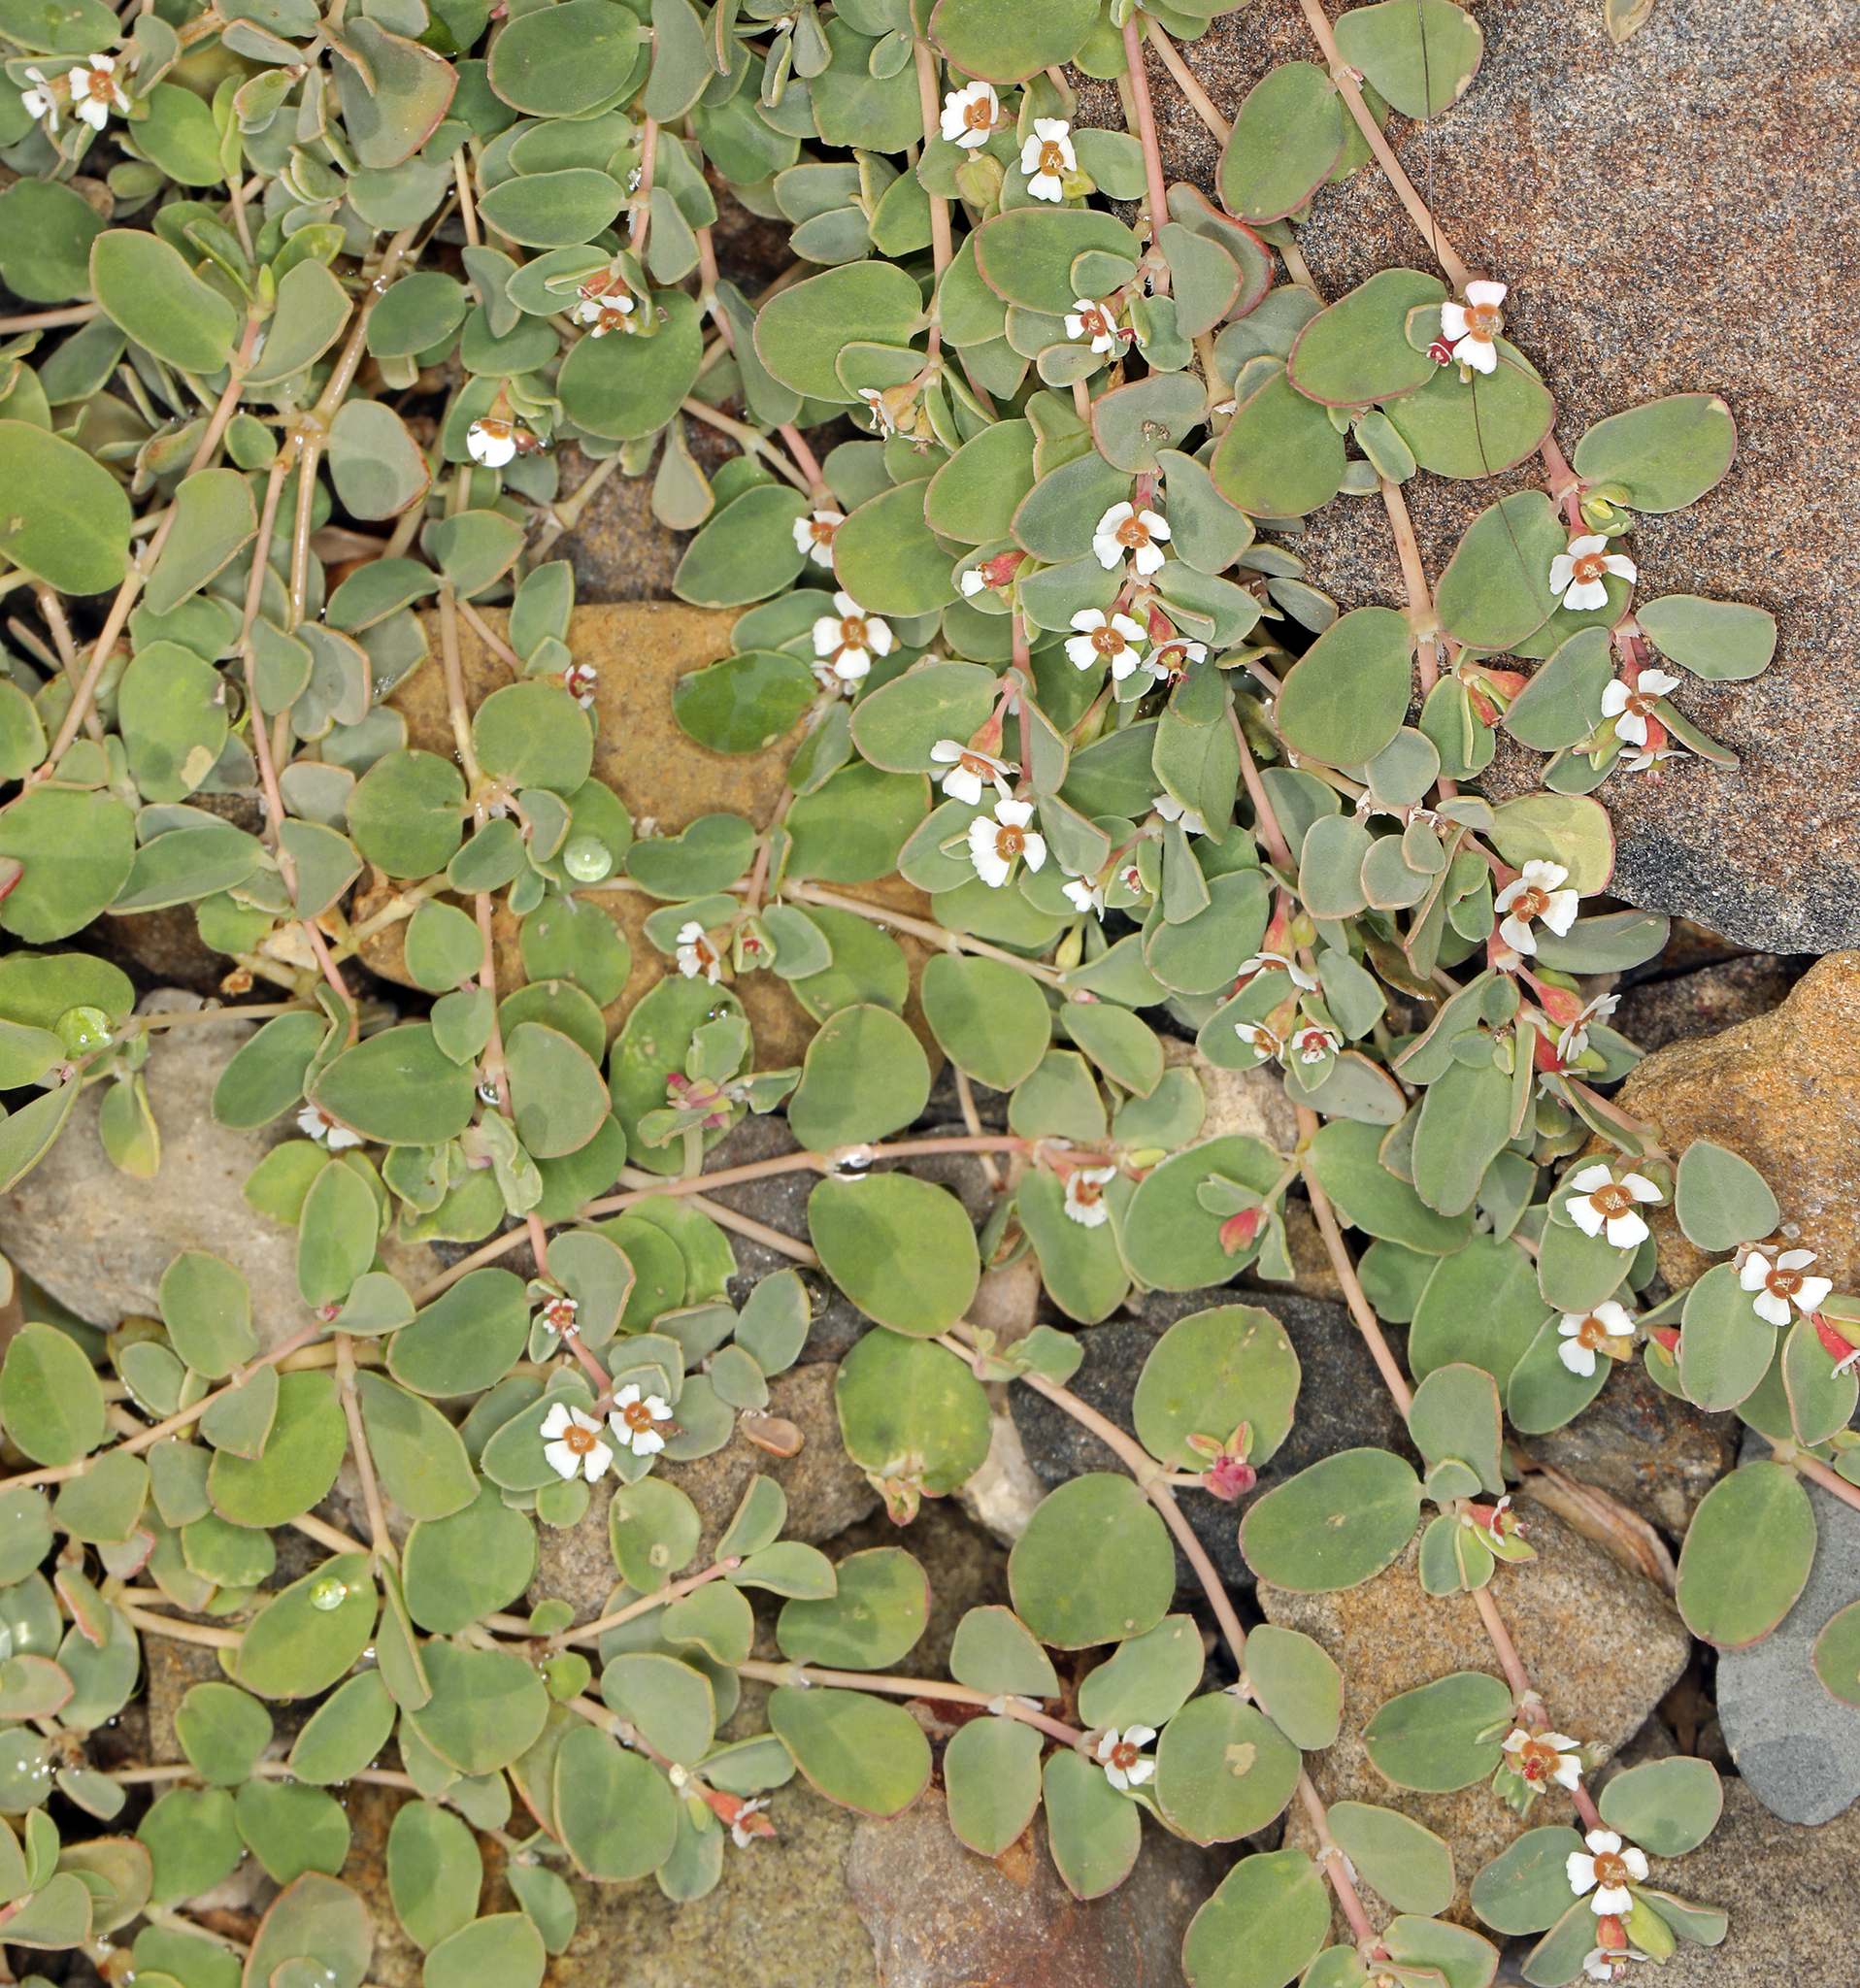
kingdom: Plantae
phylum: Tracheophyta
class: Magnoliopsida
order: Malpighiales
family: Euphorbiaceae
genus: Euphorbia
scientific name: Euphorbia albomarginata
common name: Whitemargin sandmat
